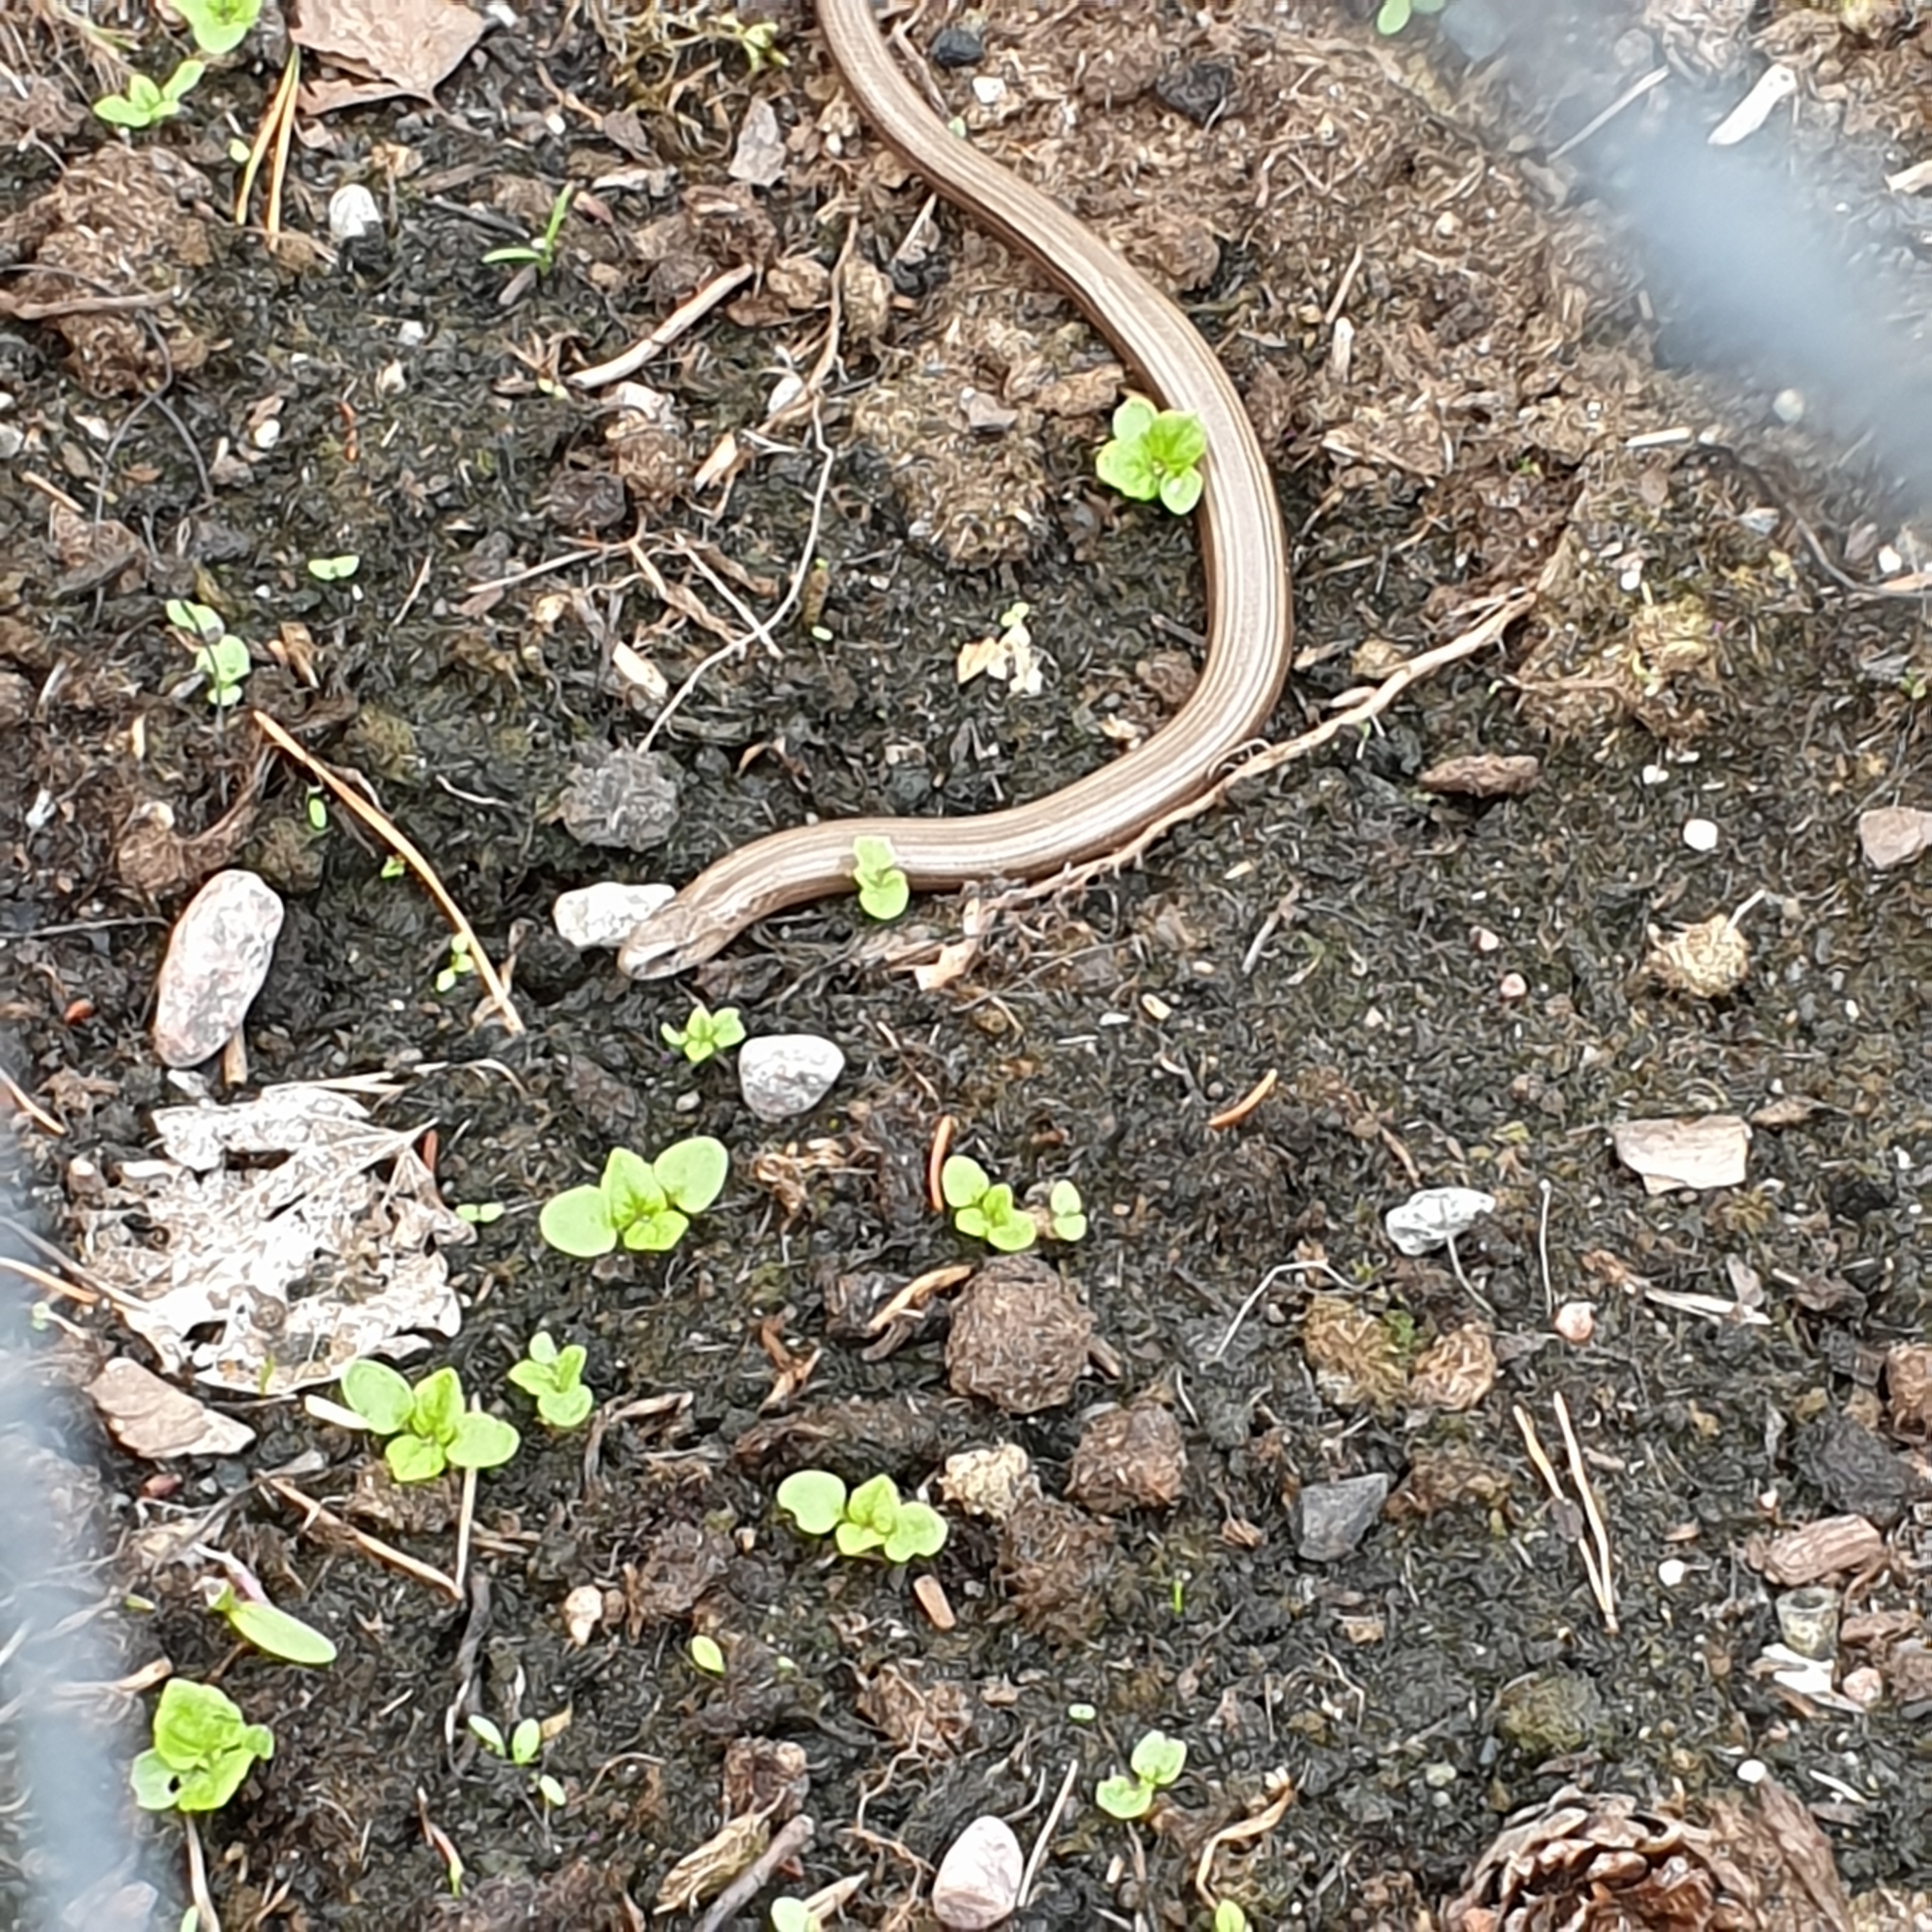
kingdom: Animalia
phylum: Chordata
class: Squamata
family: Anguidae
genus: Anguis
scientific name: Anguis fragilis
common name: Slow worm
